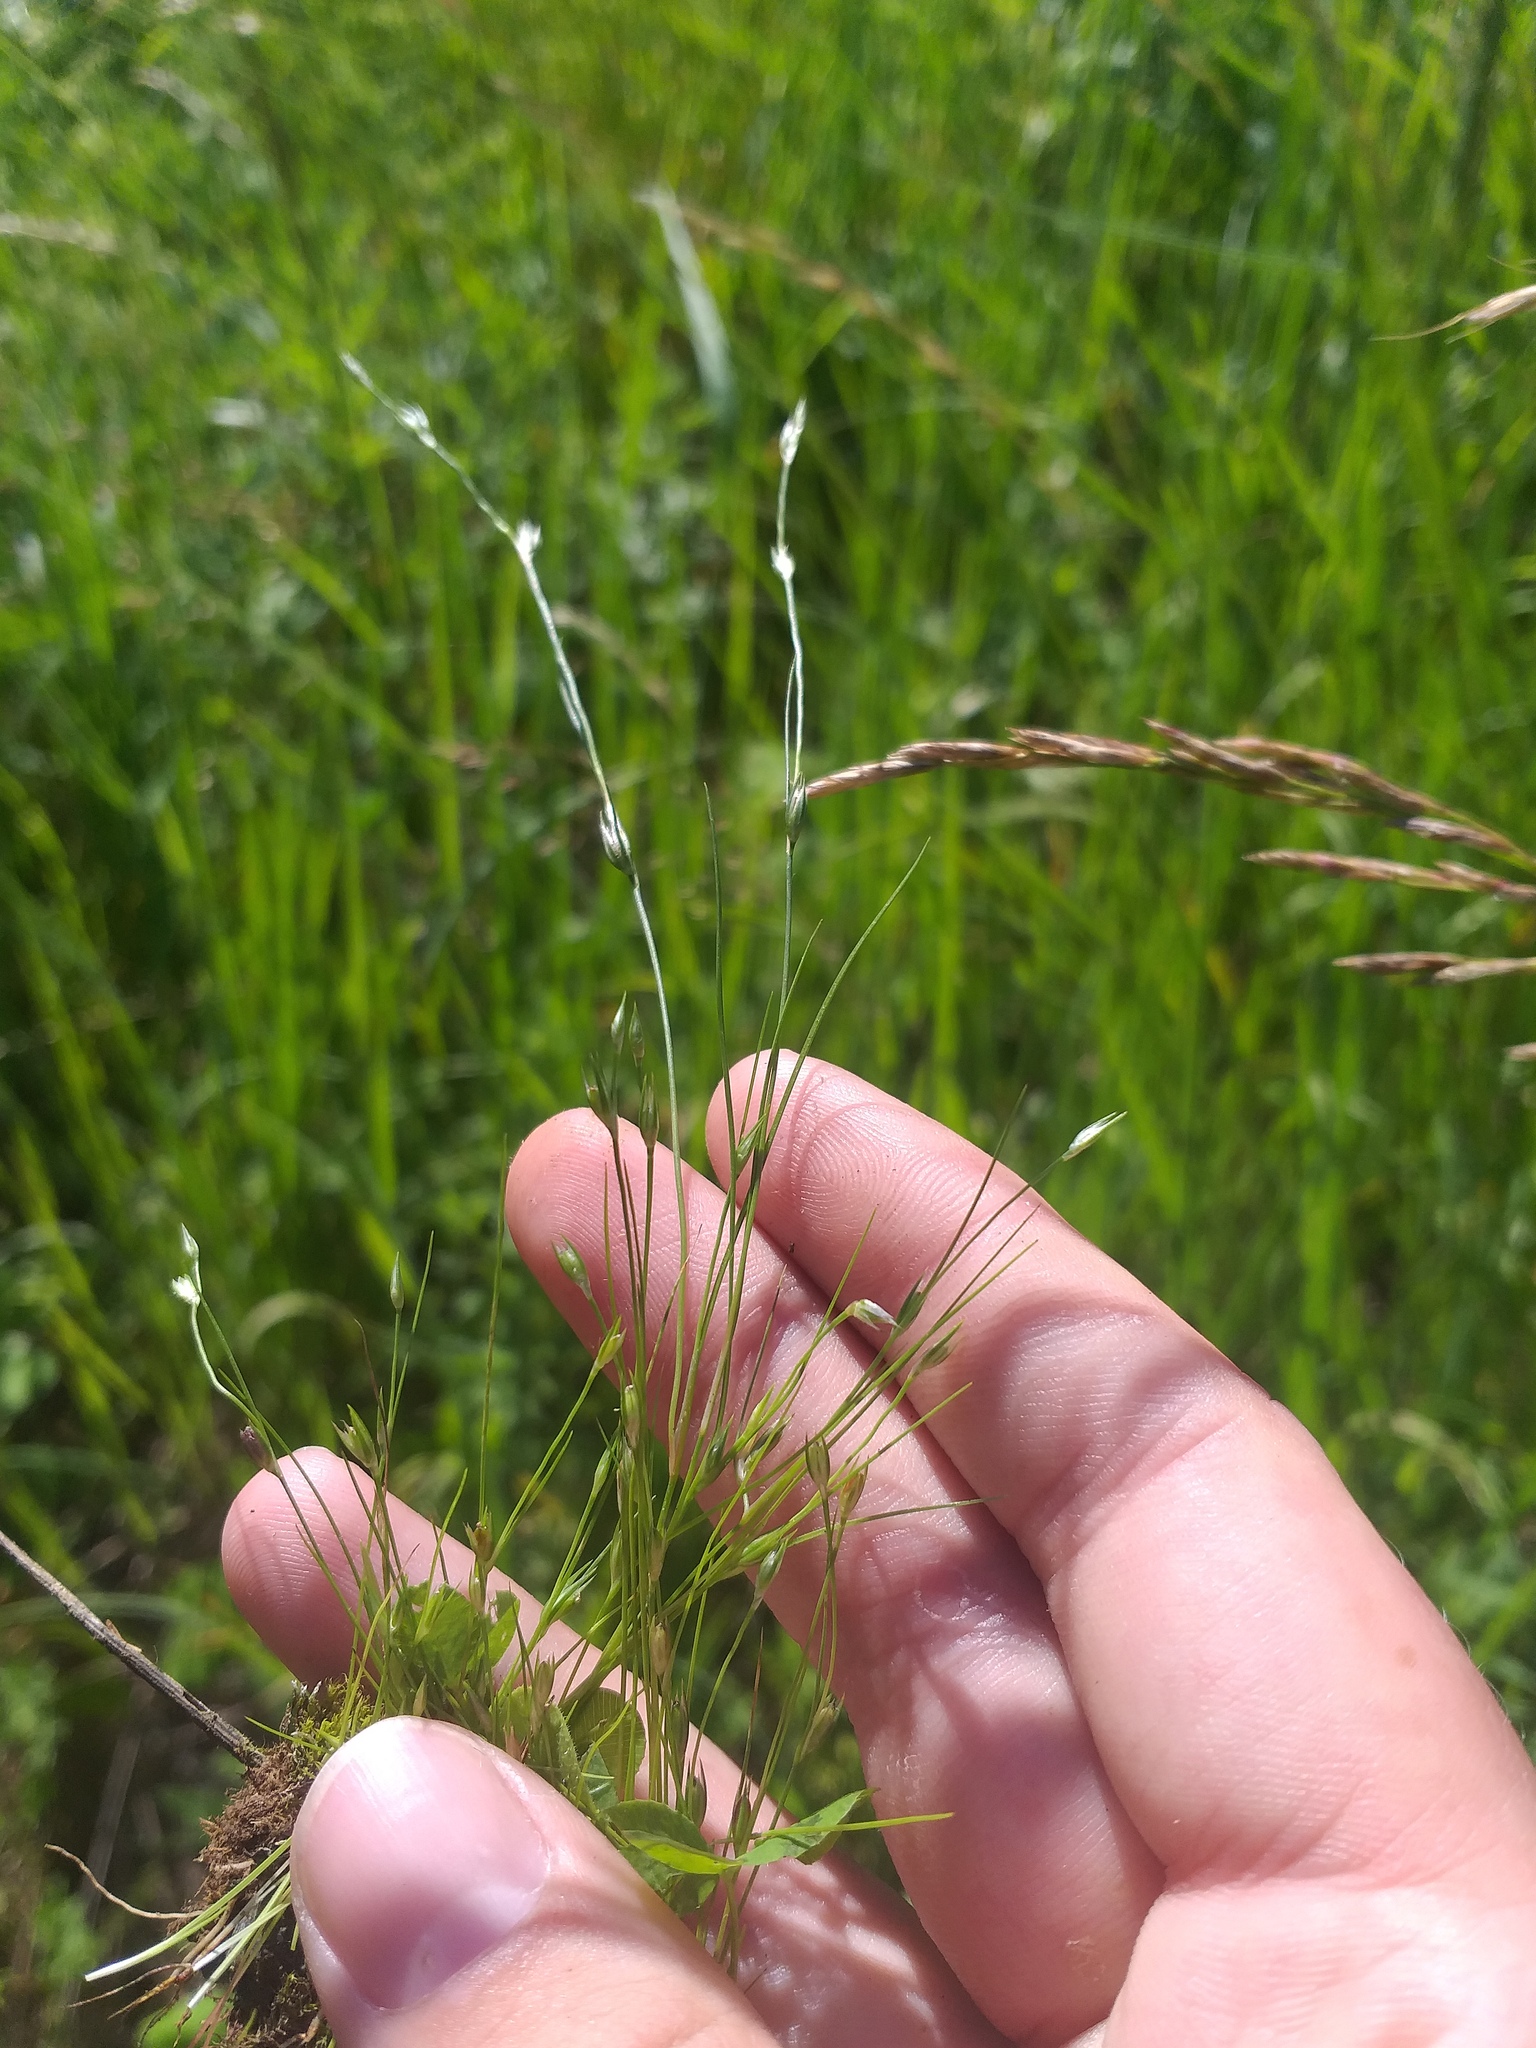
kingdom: Plantae
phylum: Tracheophyta
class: Liliopsida
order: Poales
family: Juncaceae
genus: Juncus
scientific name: Juncus bufonius
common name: Toad rush
